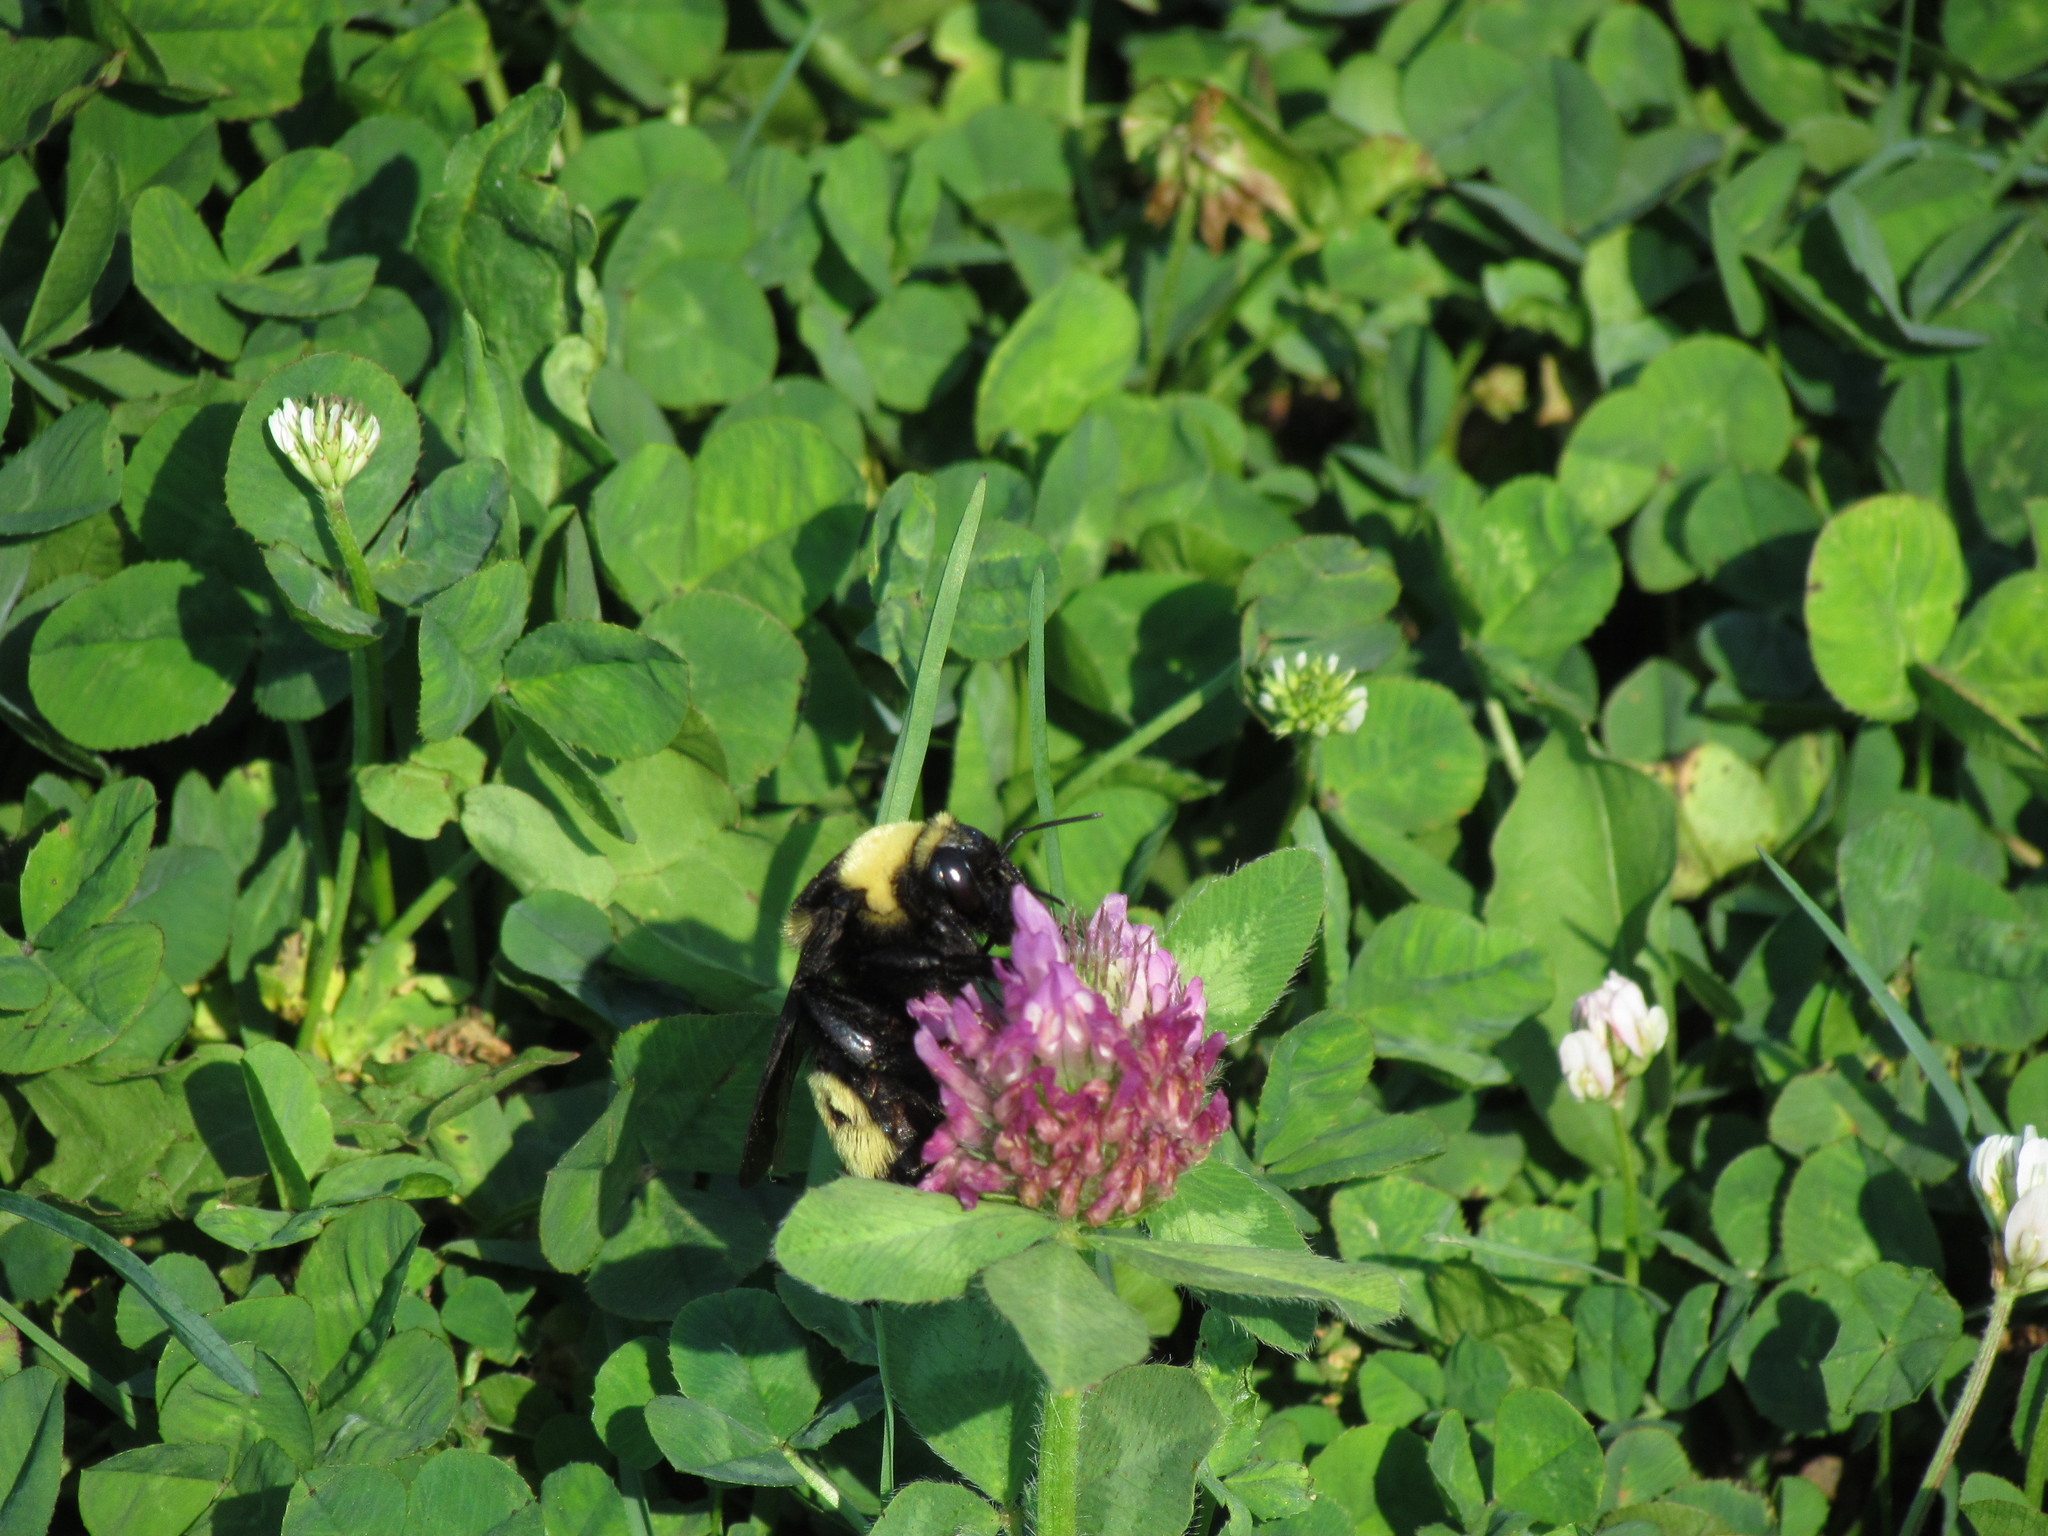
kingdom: Animalia
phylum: Arthropoda
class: Insecta
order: Hymenoptera
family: Apidae
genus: Bombus
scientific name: Bombus auricomus
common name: Black and gold bumble bee
